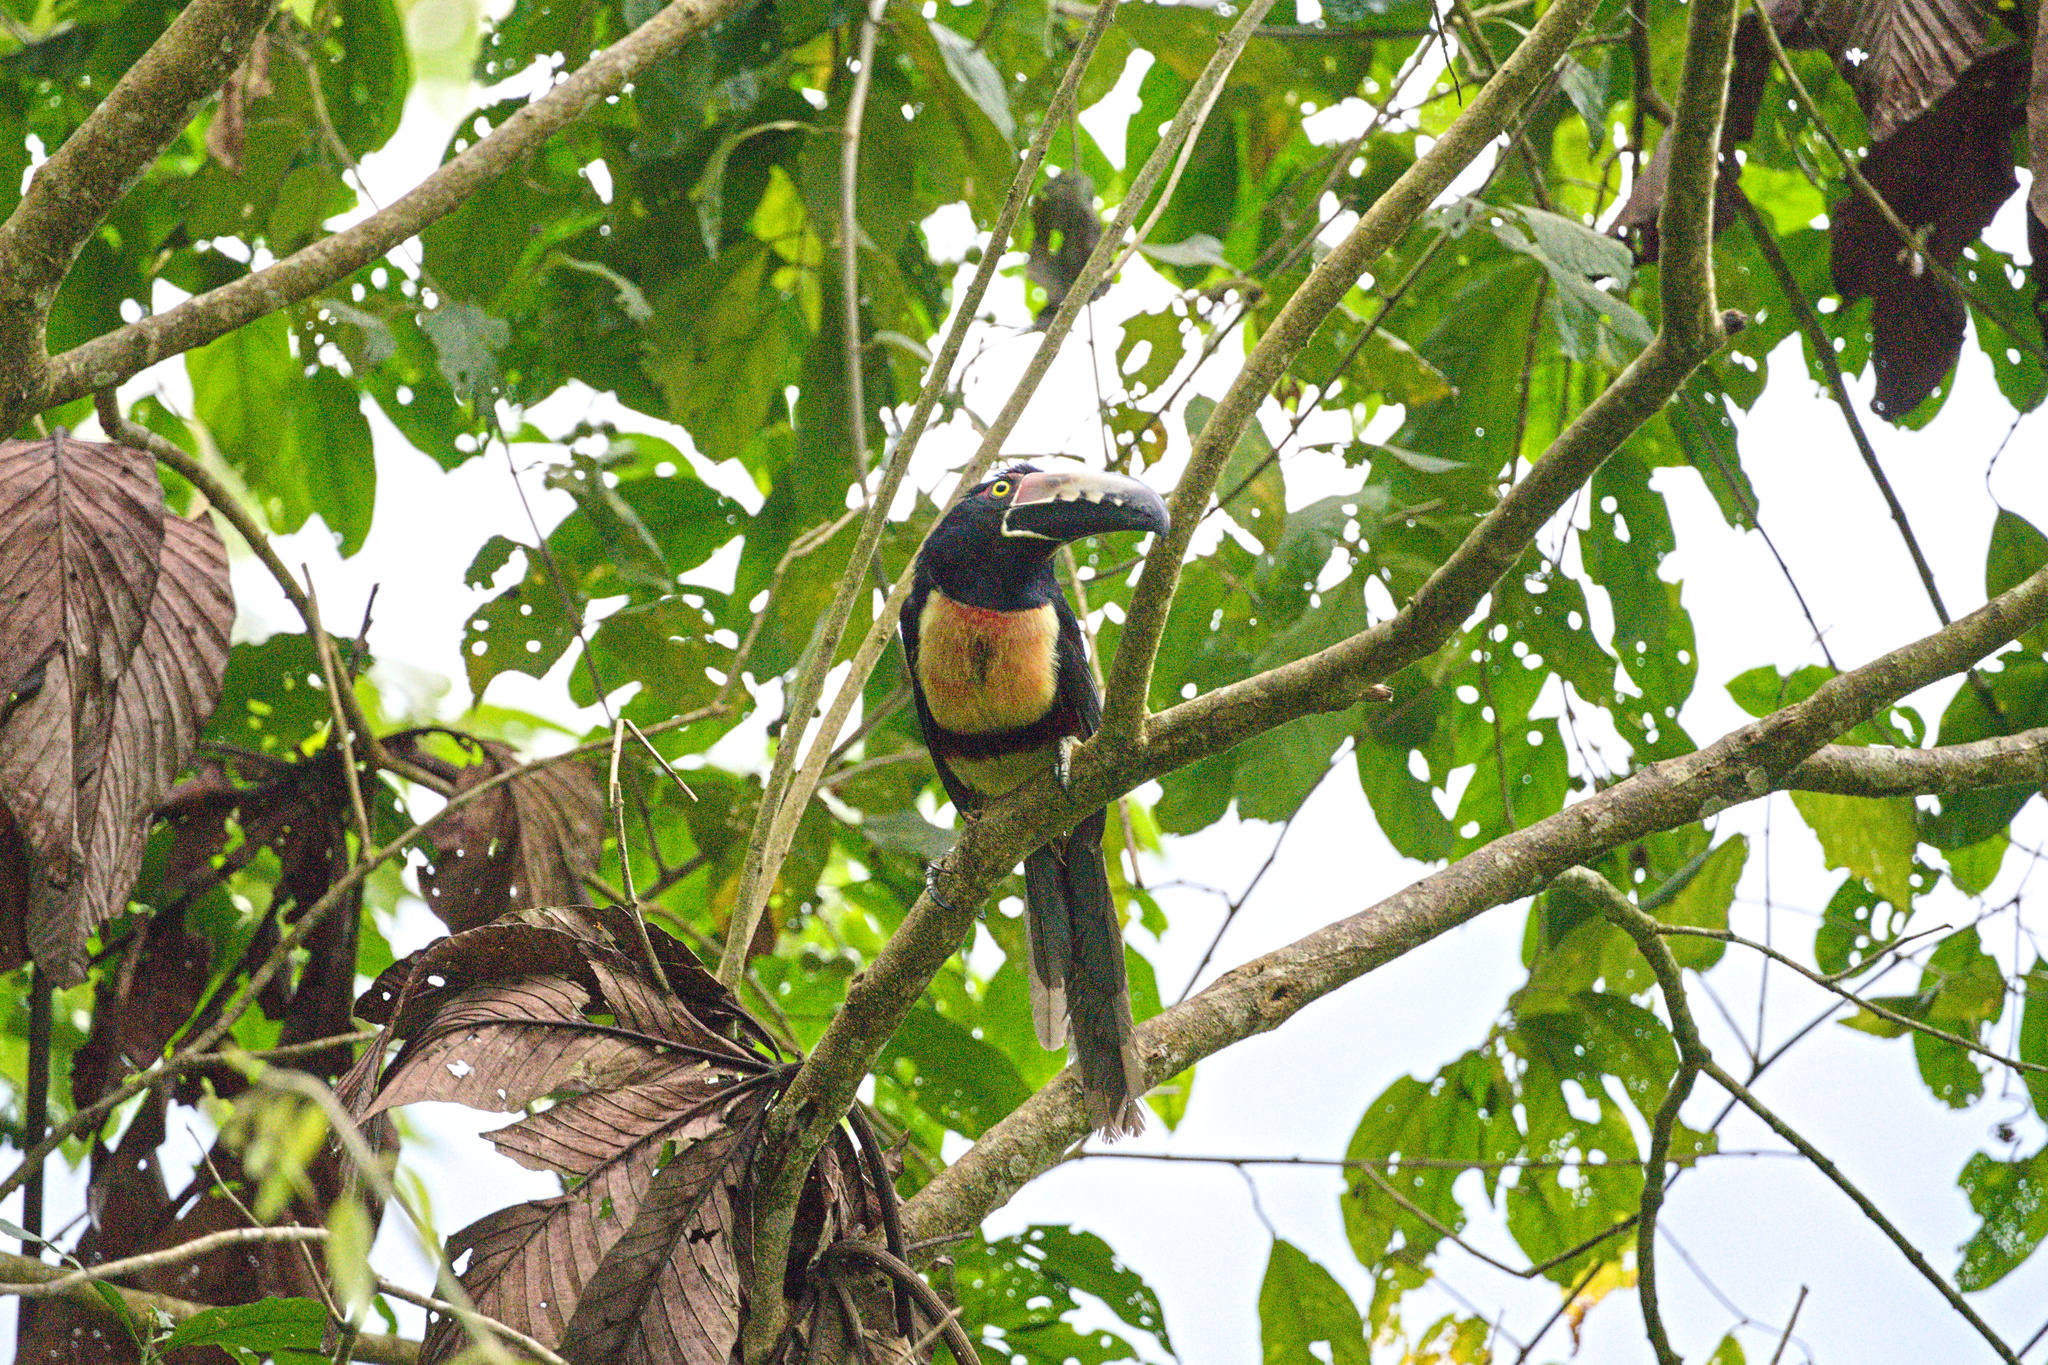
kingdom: Animalia
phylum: Chordata
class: Aves
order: Piciformes
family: Ramphastidae
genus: Pteroglossus
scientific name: Pteroglossus torquatus
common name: Collared aracari
